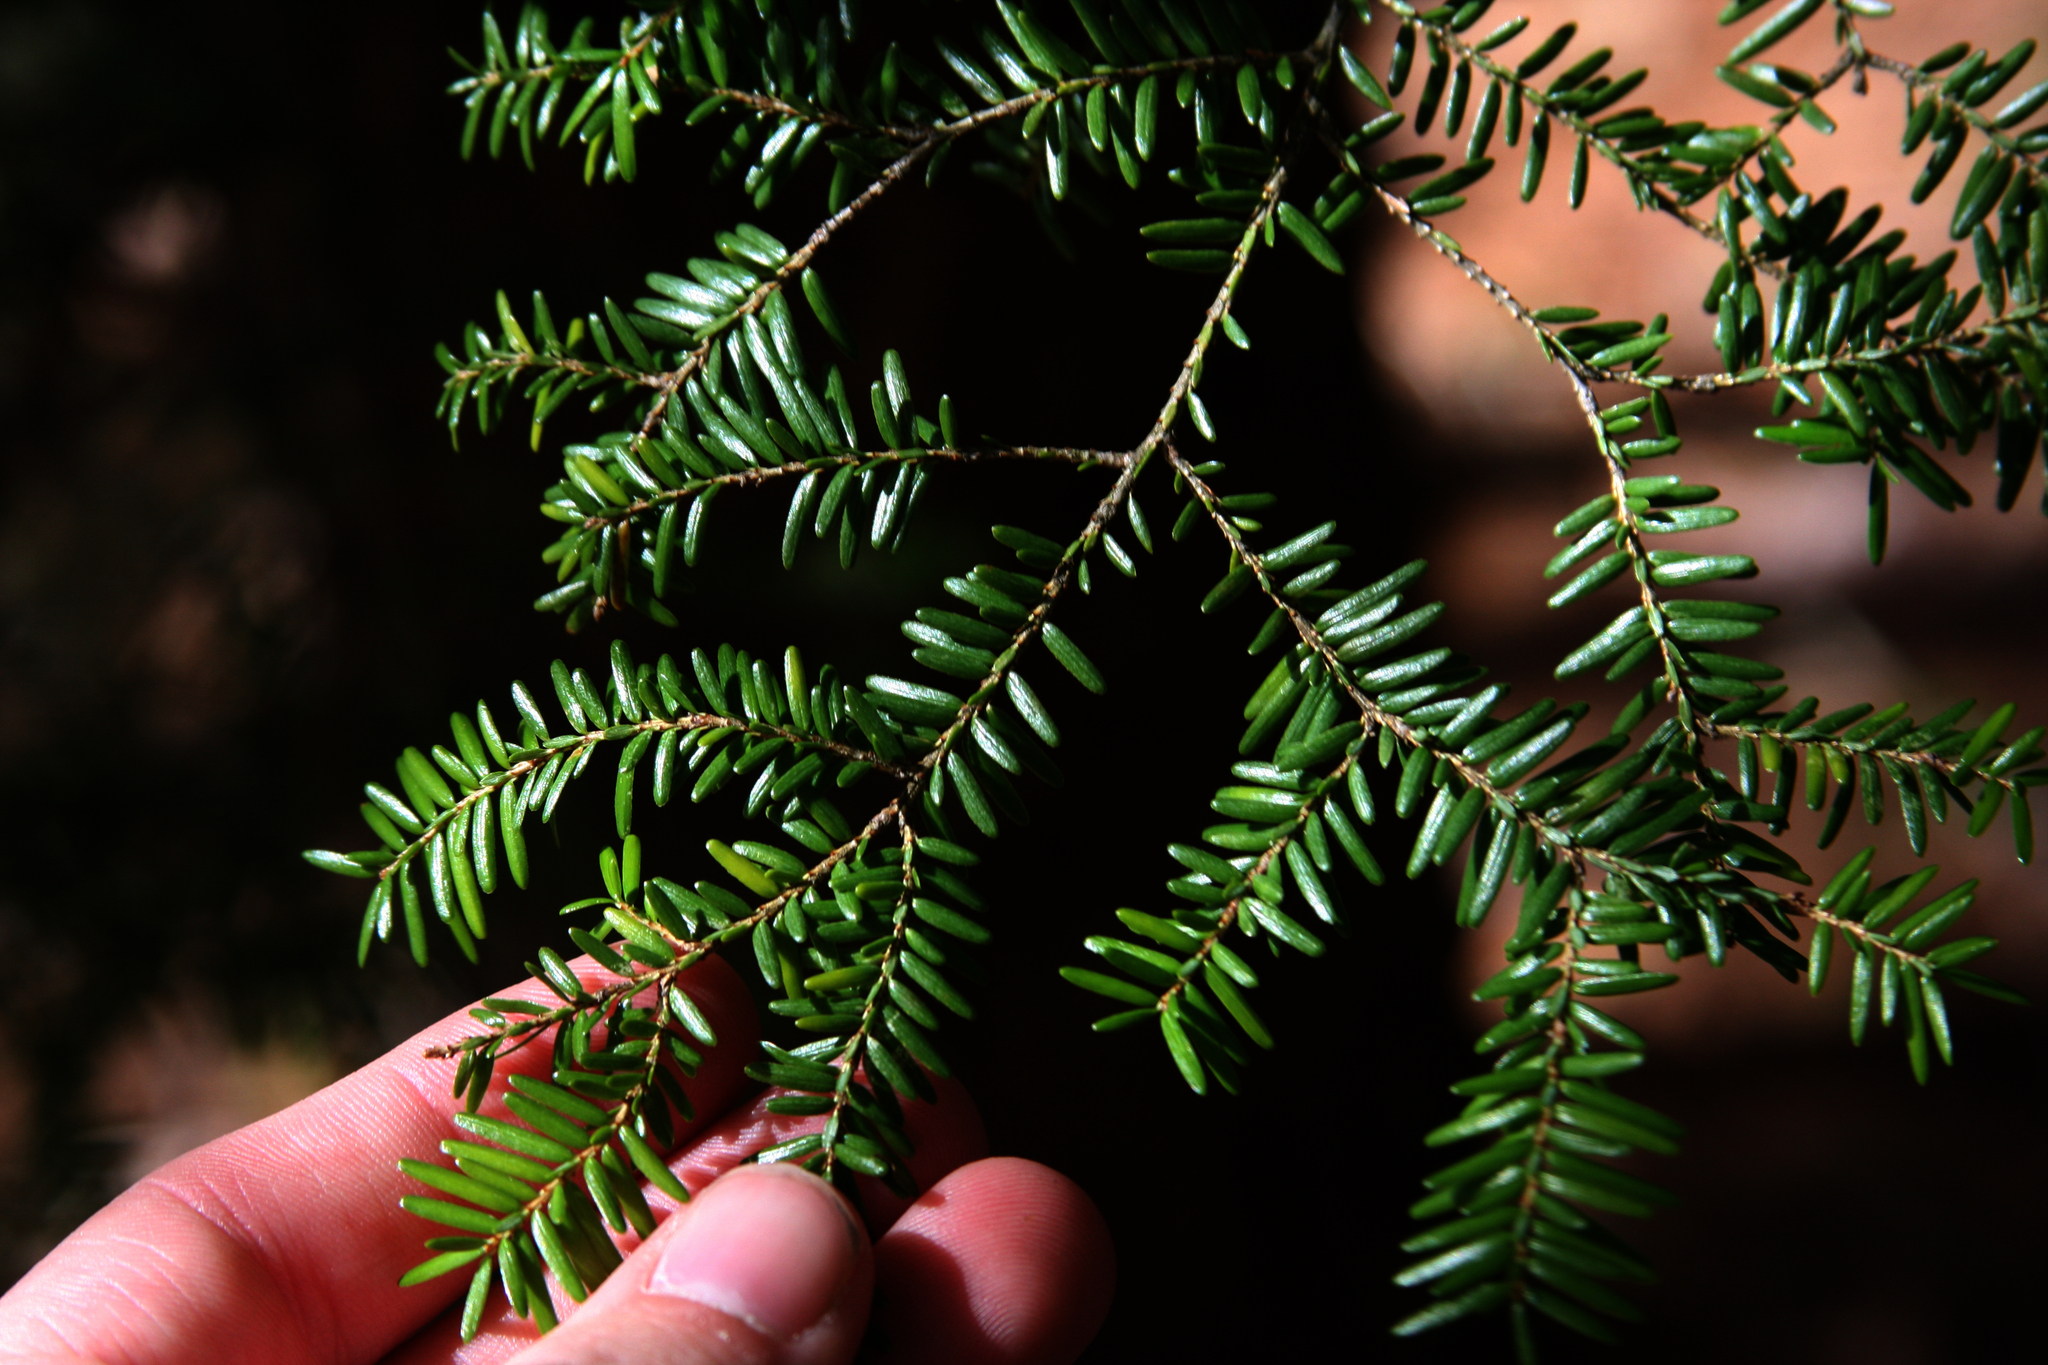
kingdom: Plantae
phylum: Tracheophyta
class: Pinopsida
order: Pinales
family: Pinaceae
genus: Tsuga
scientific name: Tsuga canadensis
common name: Eastern hemlock
